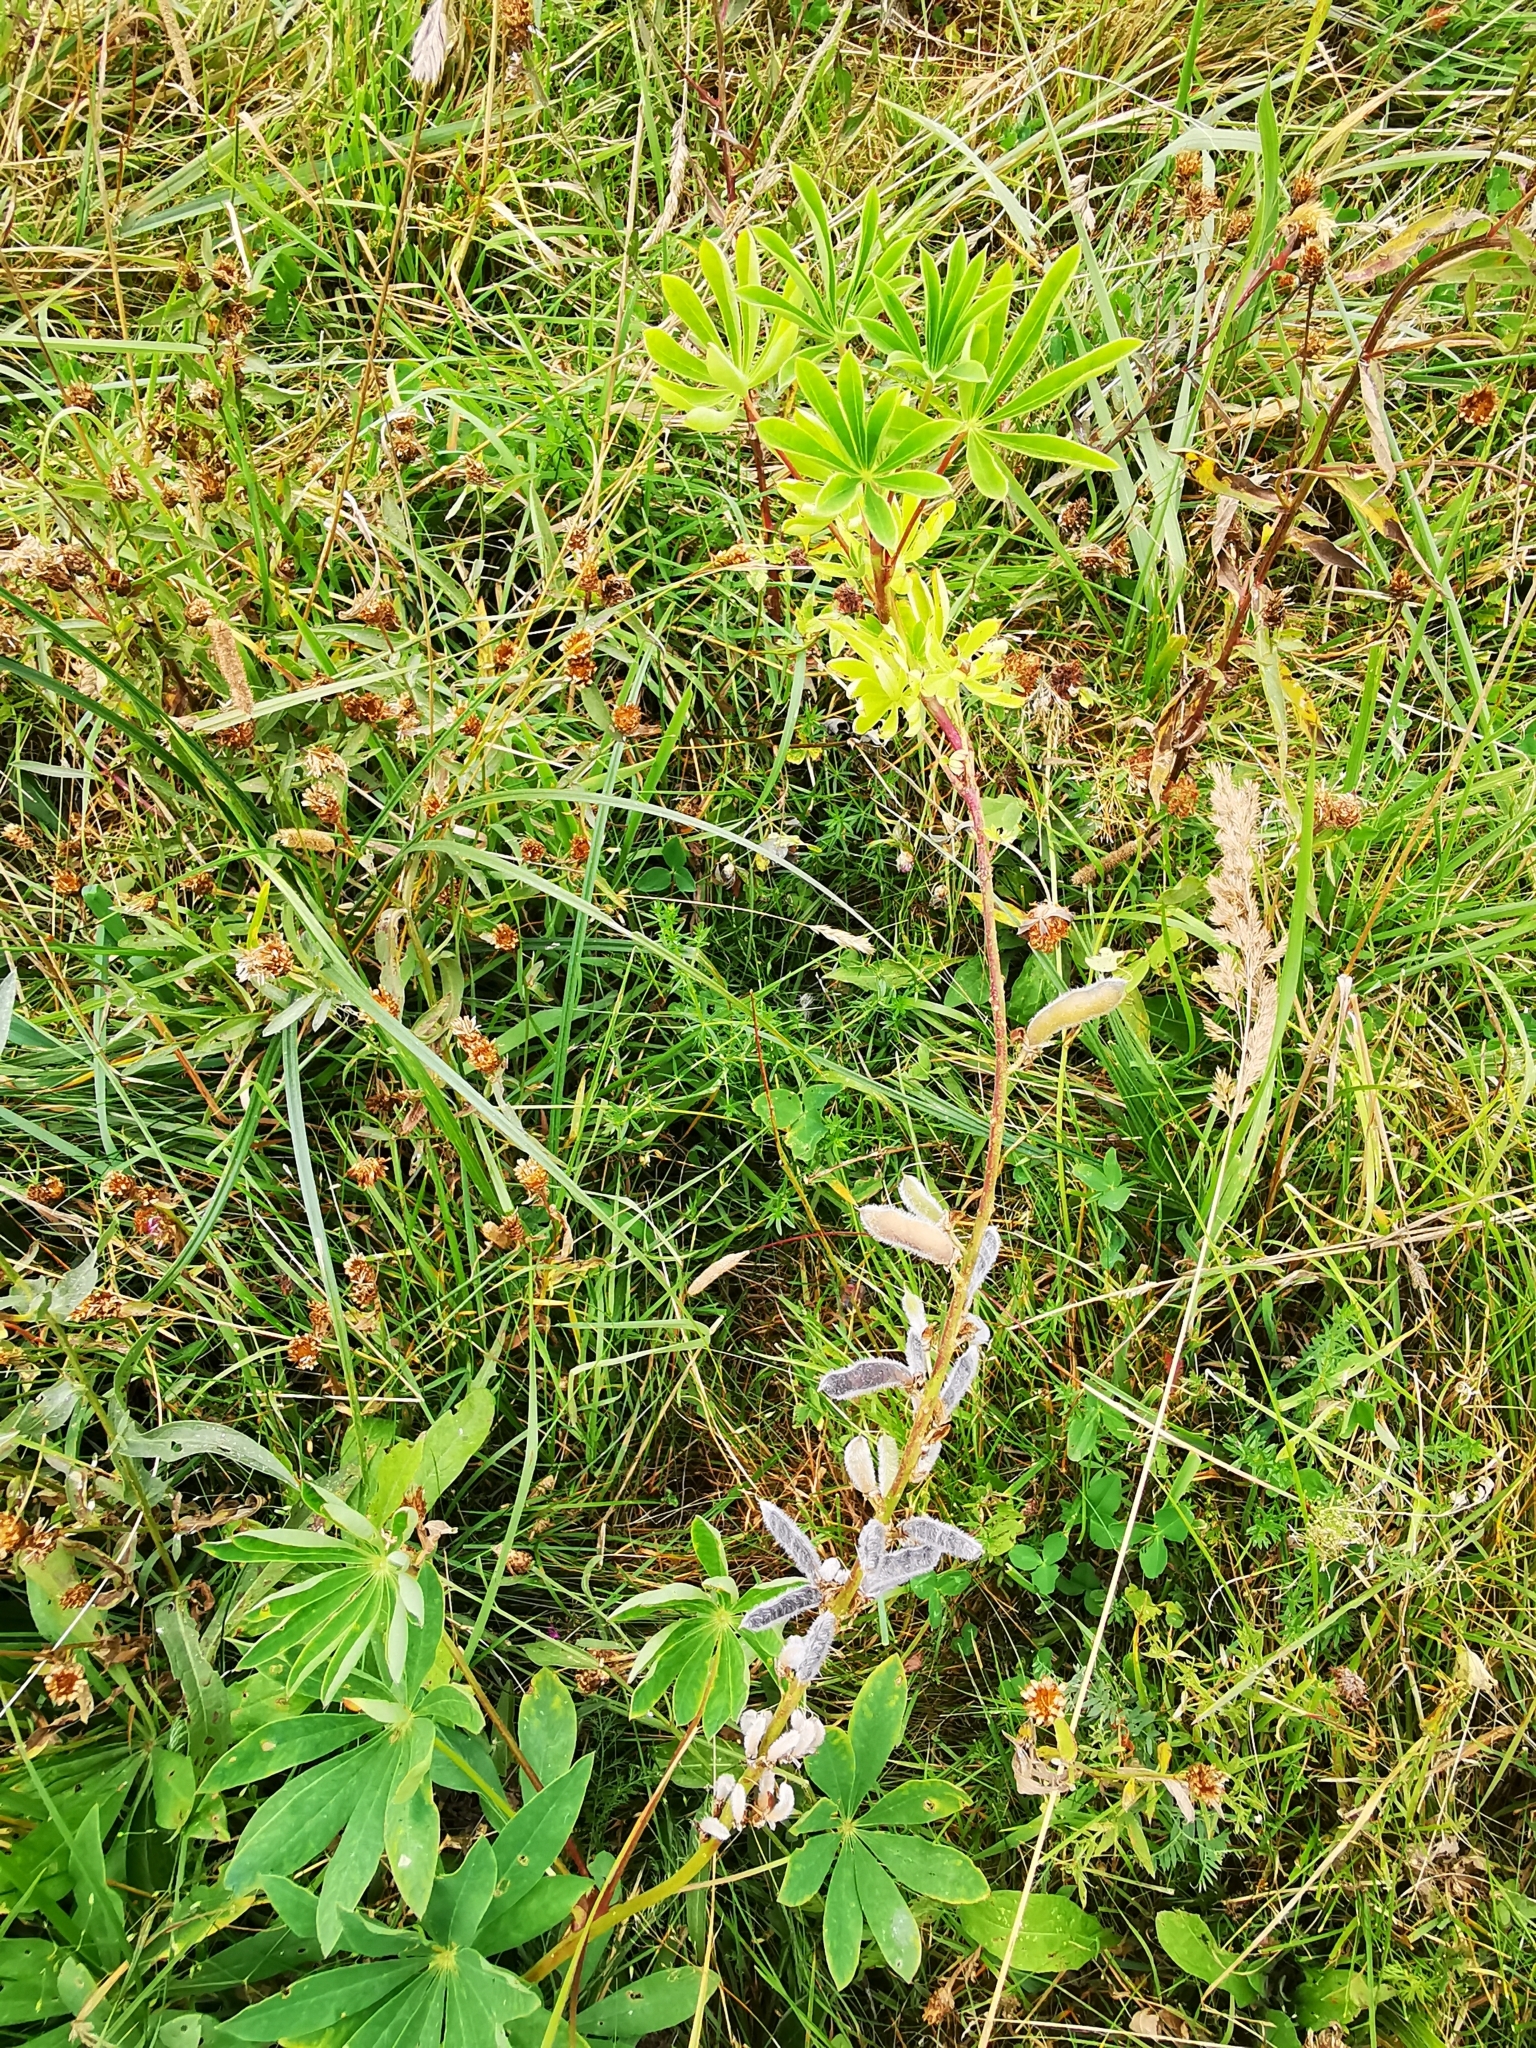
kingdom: Plantae
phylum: Tracheophyta
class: Magnoliopsida
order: Fabales
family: Fabaceae
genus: Lupinus
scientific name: Lupinus polyphyllus
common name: Garden lupin
